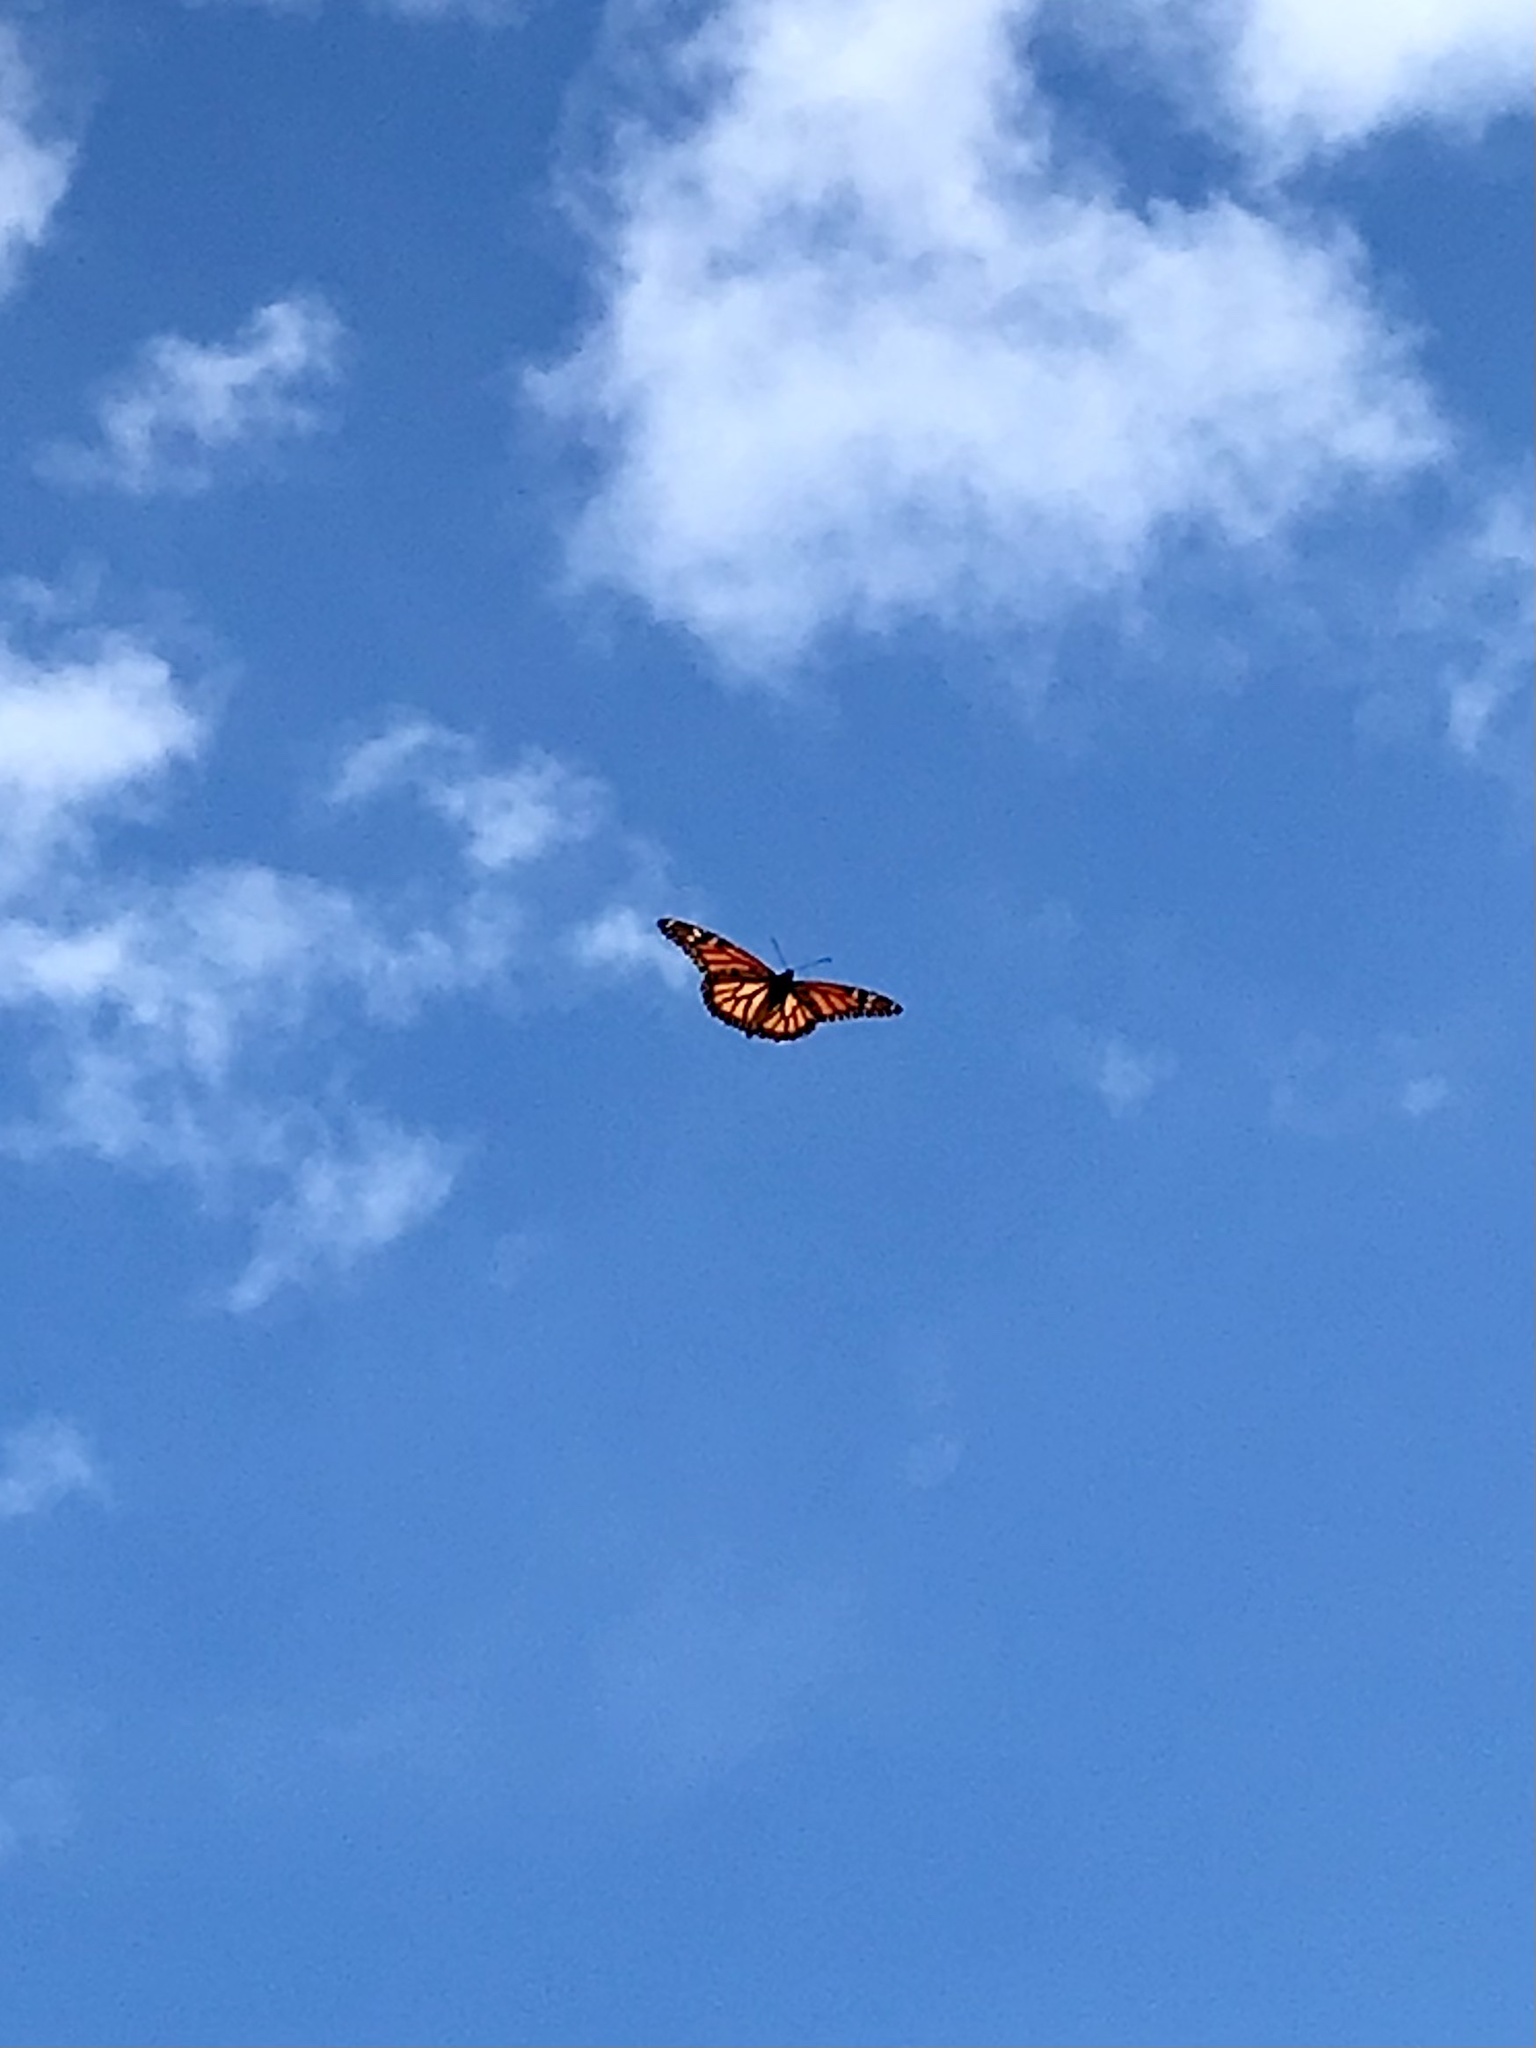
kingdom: Animalia
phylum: Arthropoda
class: Insecta
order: Lepidoptera
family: Nymphalidae
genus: Danaus
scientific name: Danaus plexippus
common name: Monarch
